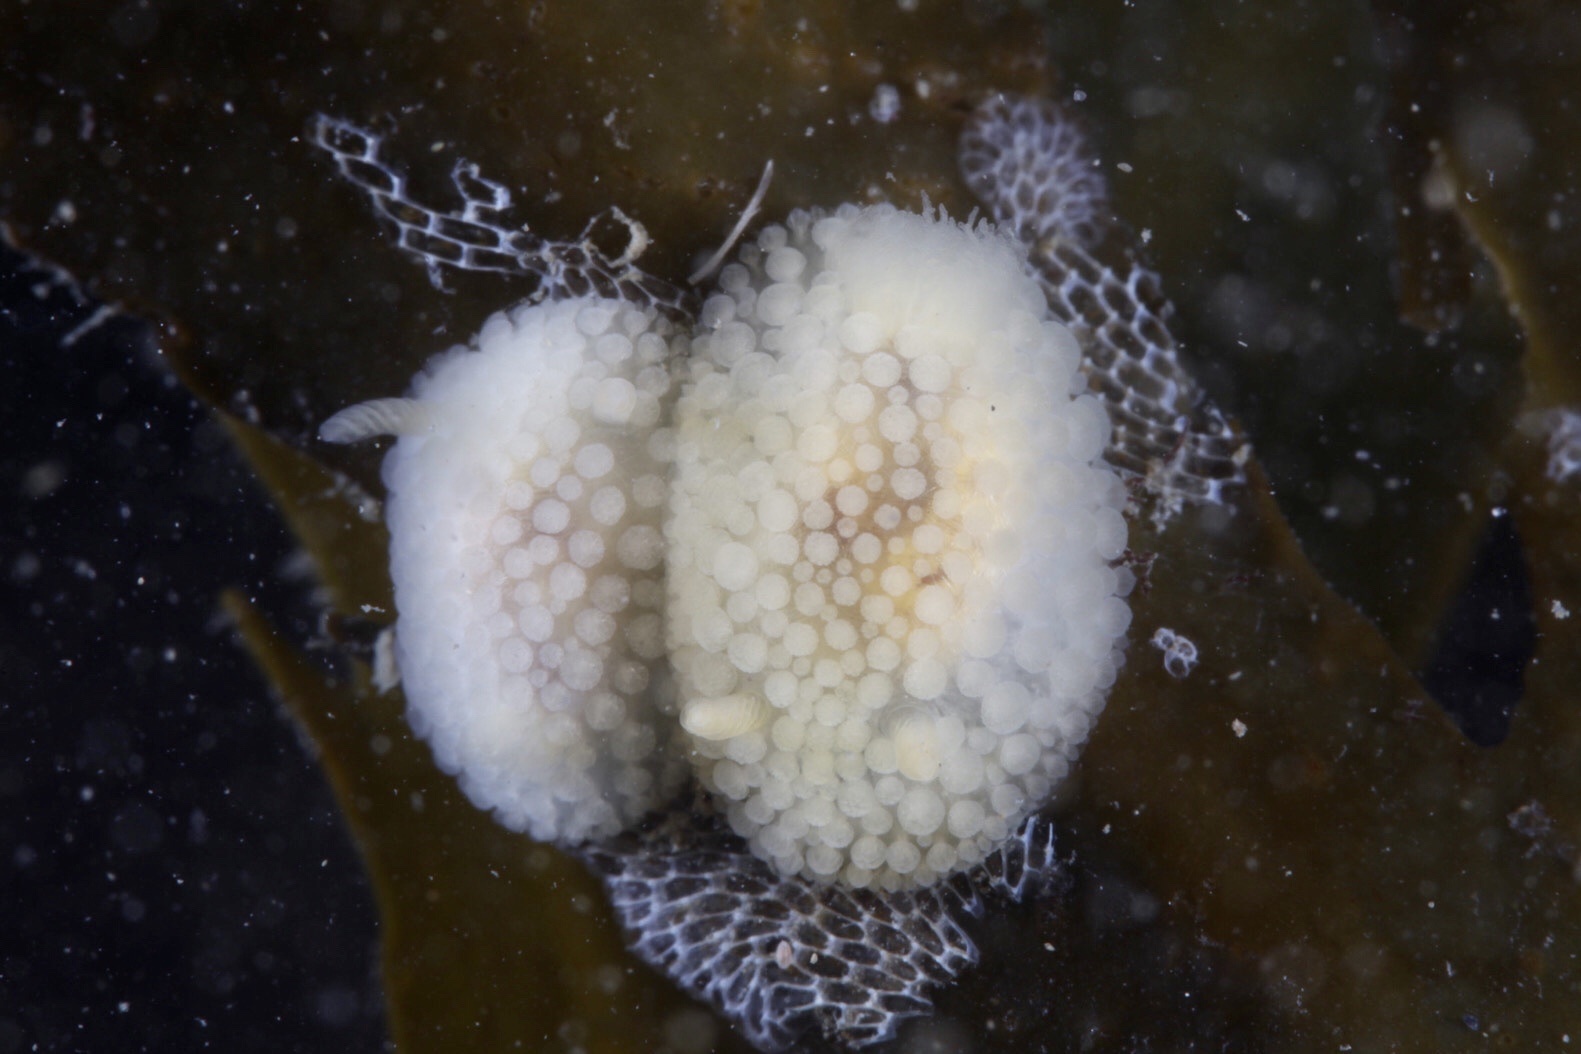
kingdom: Animalia
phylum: Mollusca
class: Gastropoda
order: Nudibranchia
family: Onchidorididae
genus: Onchidoris
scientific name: Onchidoris muricata
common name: Rough doris
